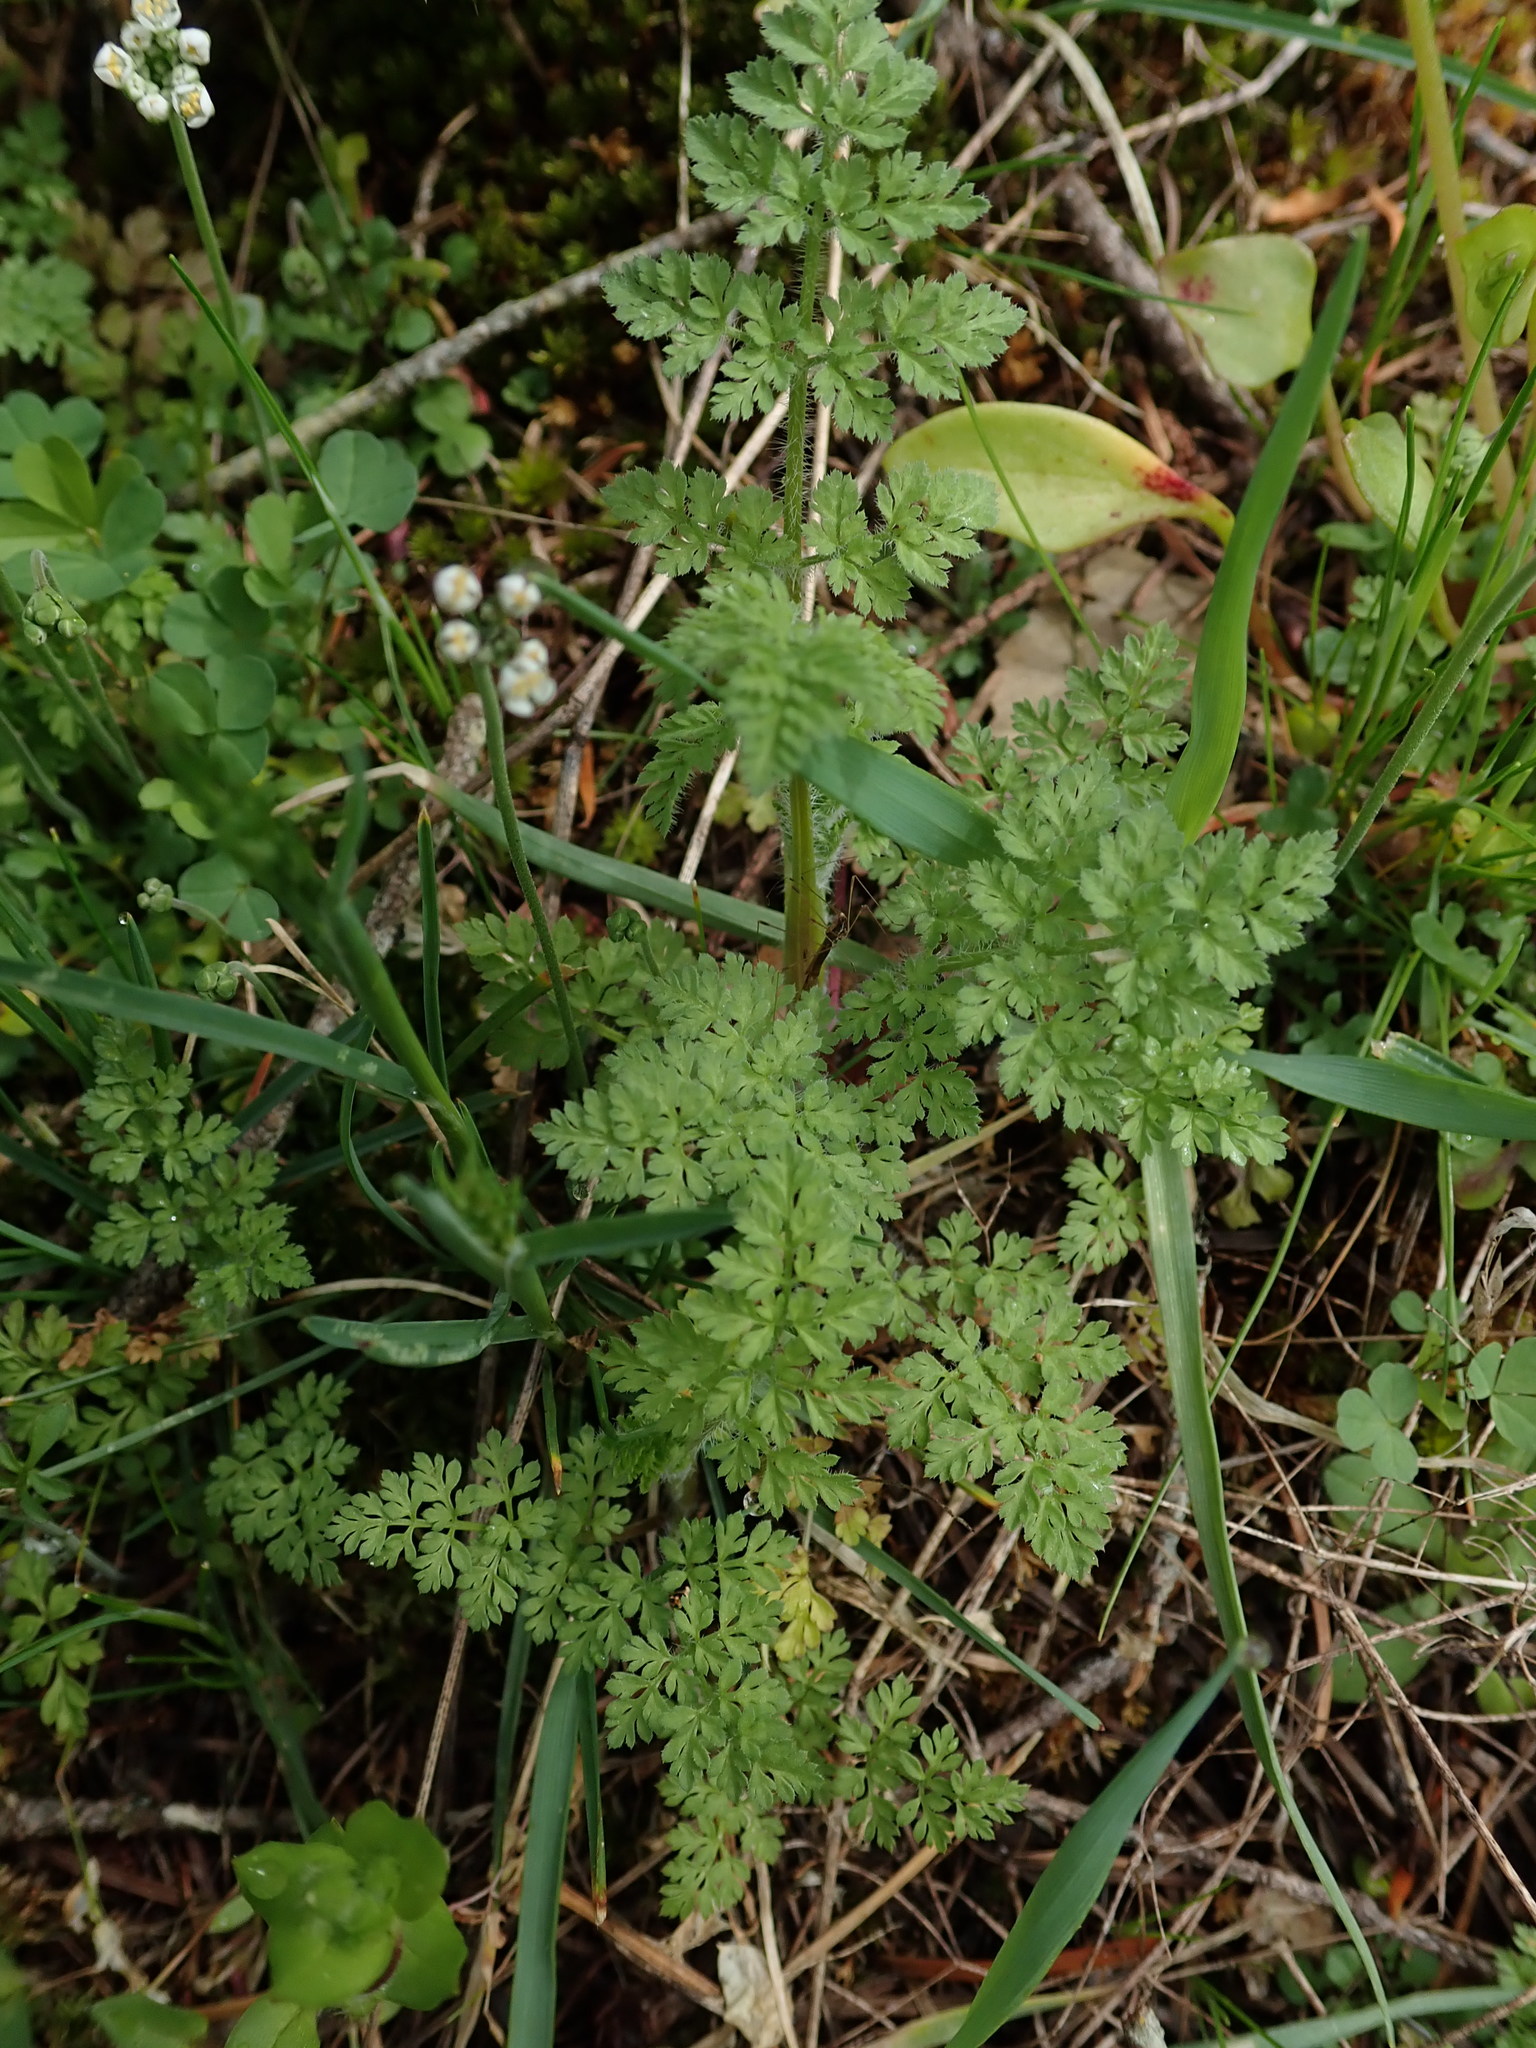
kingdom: Plantae
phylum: Tracheophyta
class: Magnoliopsida
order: Apiales
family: Apiaceae
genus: Anthriscus
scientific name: Anthriscus caucalis
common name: Bur chervil
